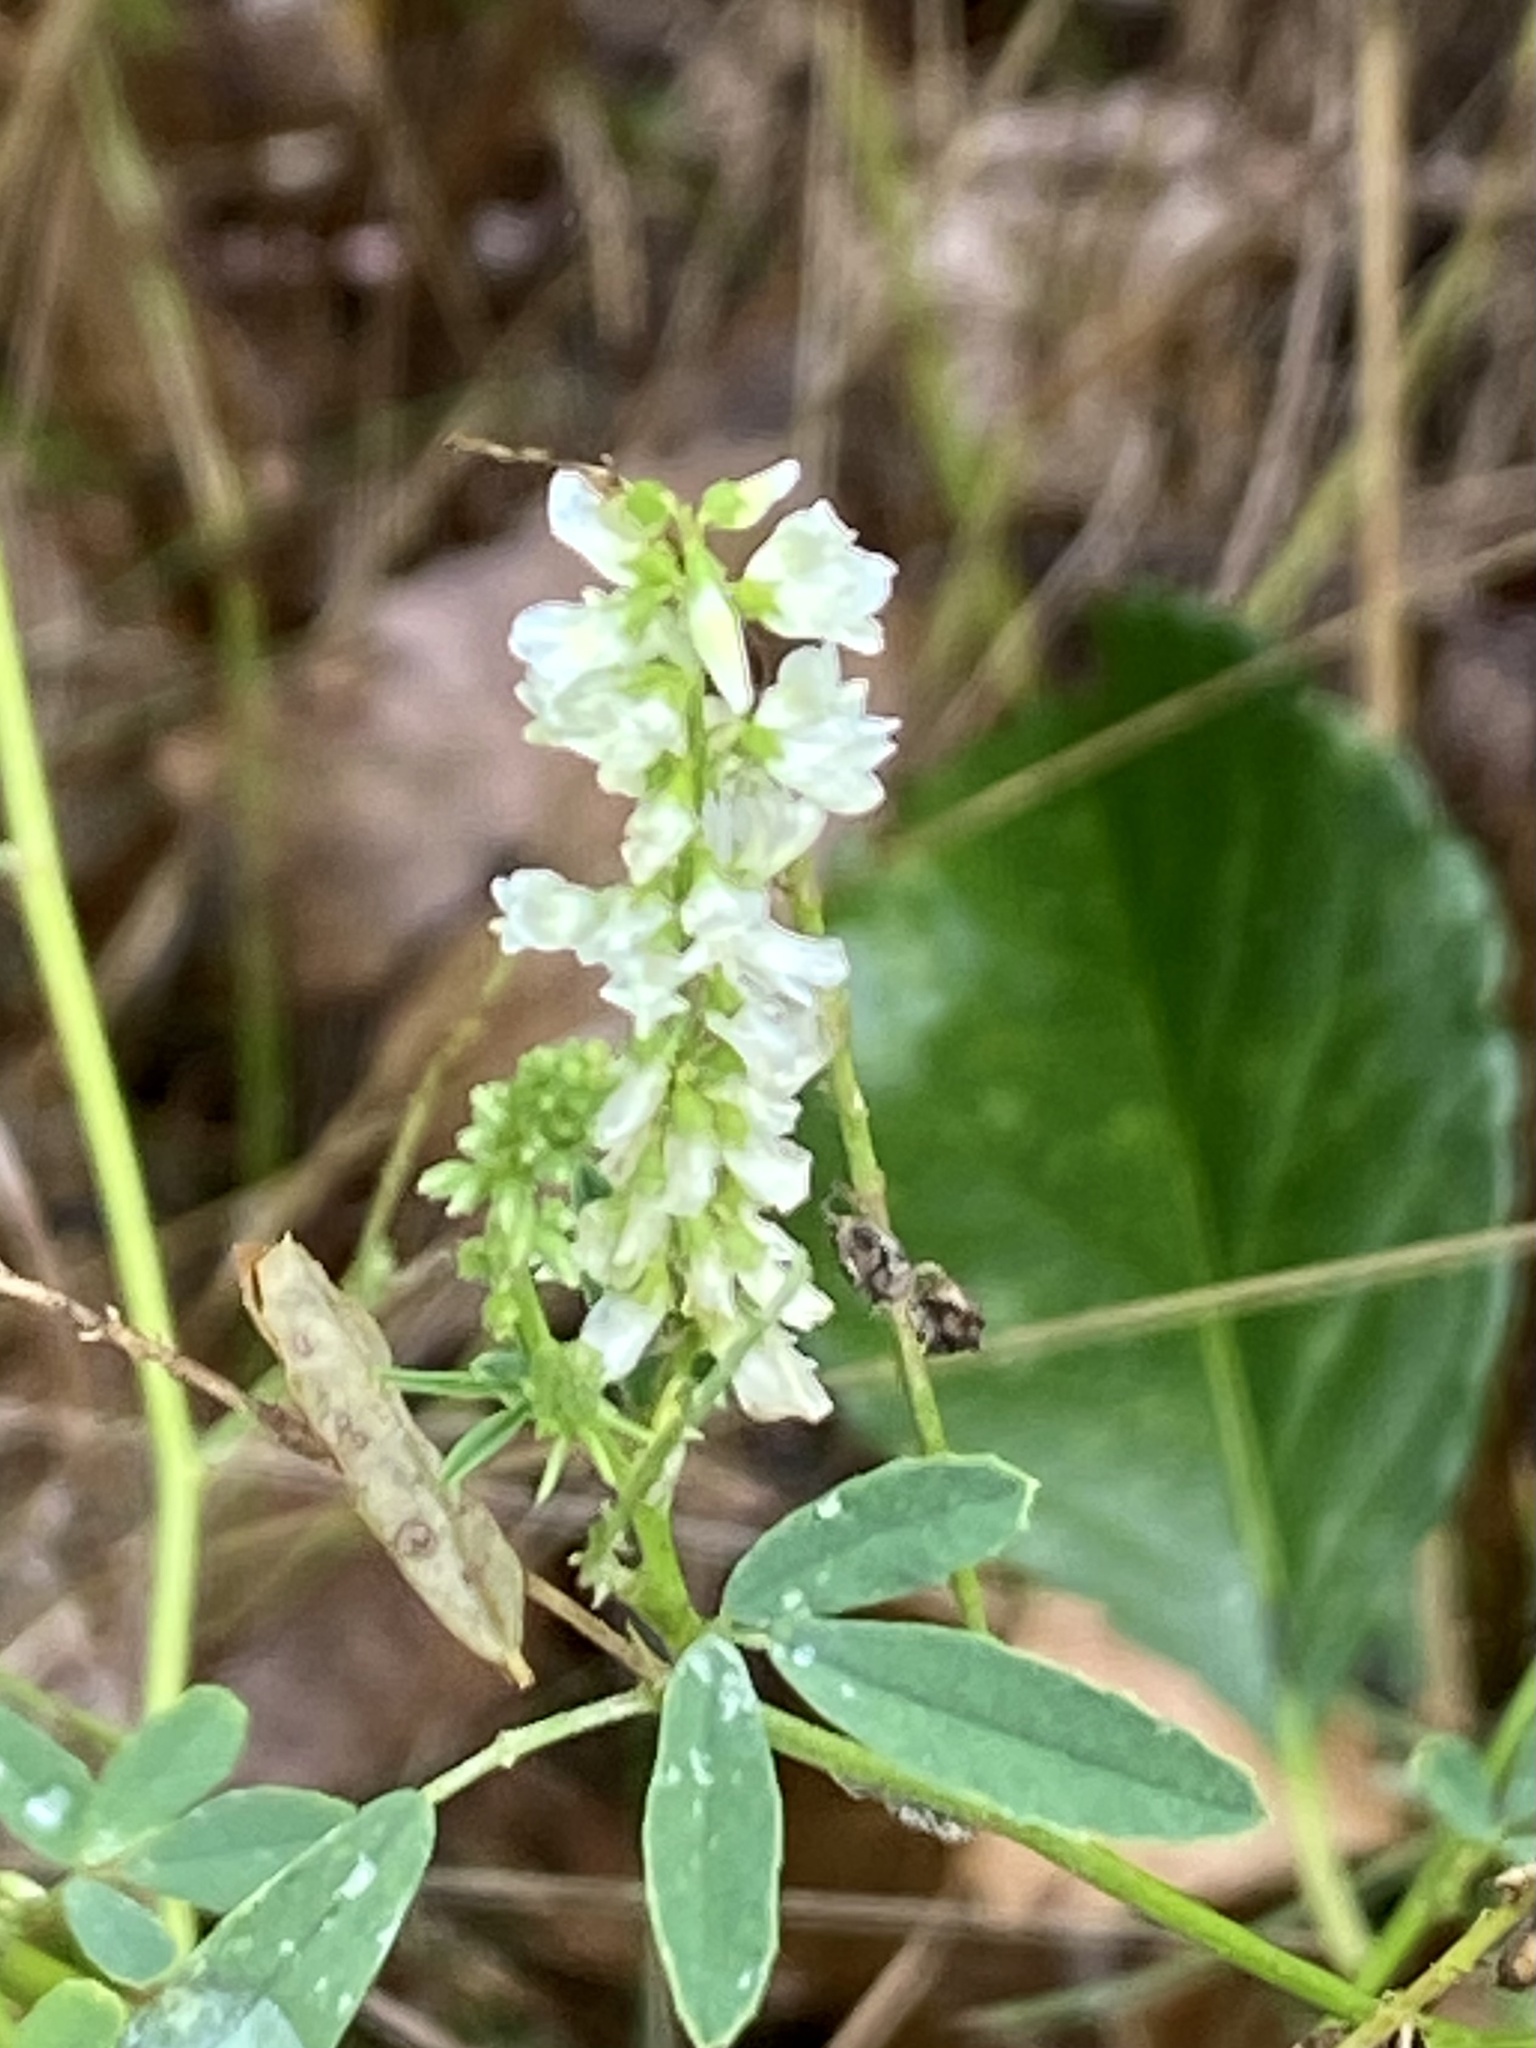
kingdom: Plantae
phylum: Tracheophyta
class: Magnoliopsida
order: Fabales
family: Fabaceae
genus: Melilotus
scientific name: Melilotus albus
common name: White melilot
